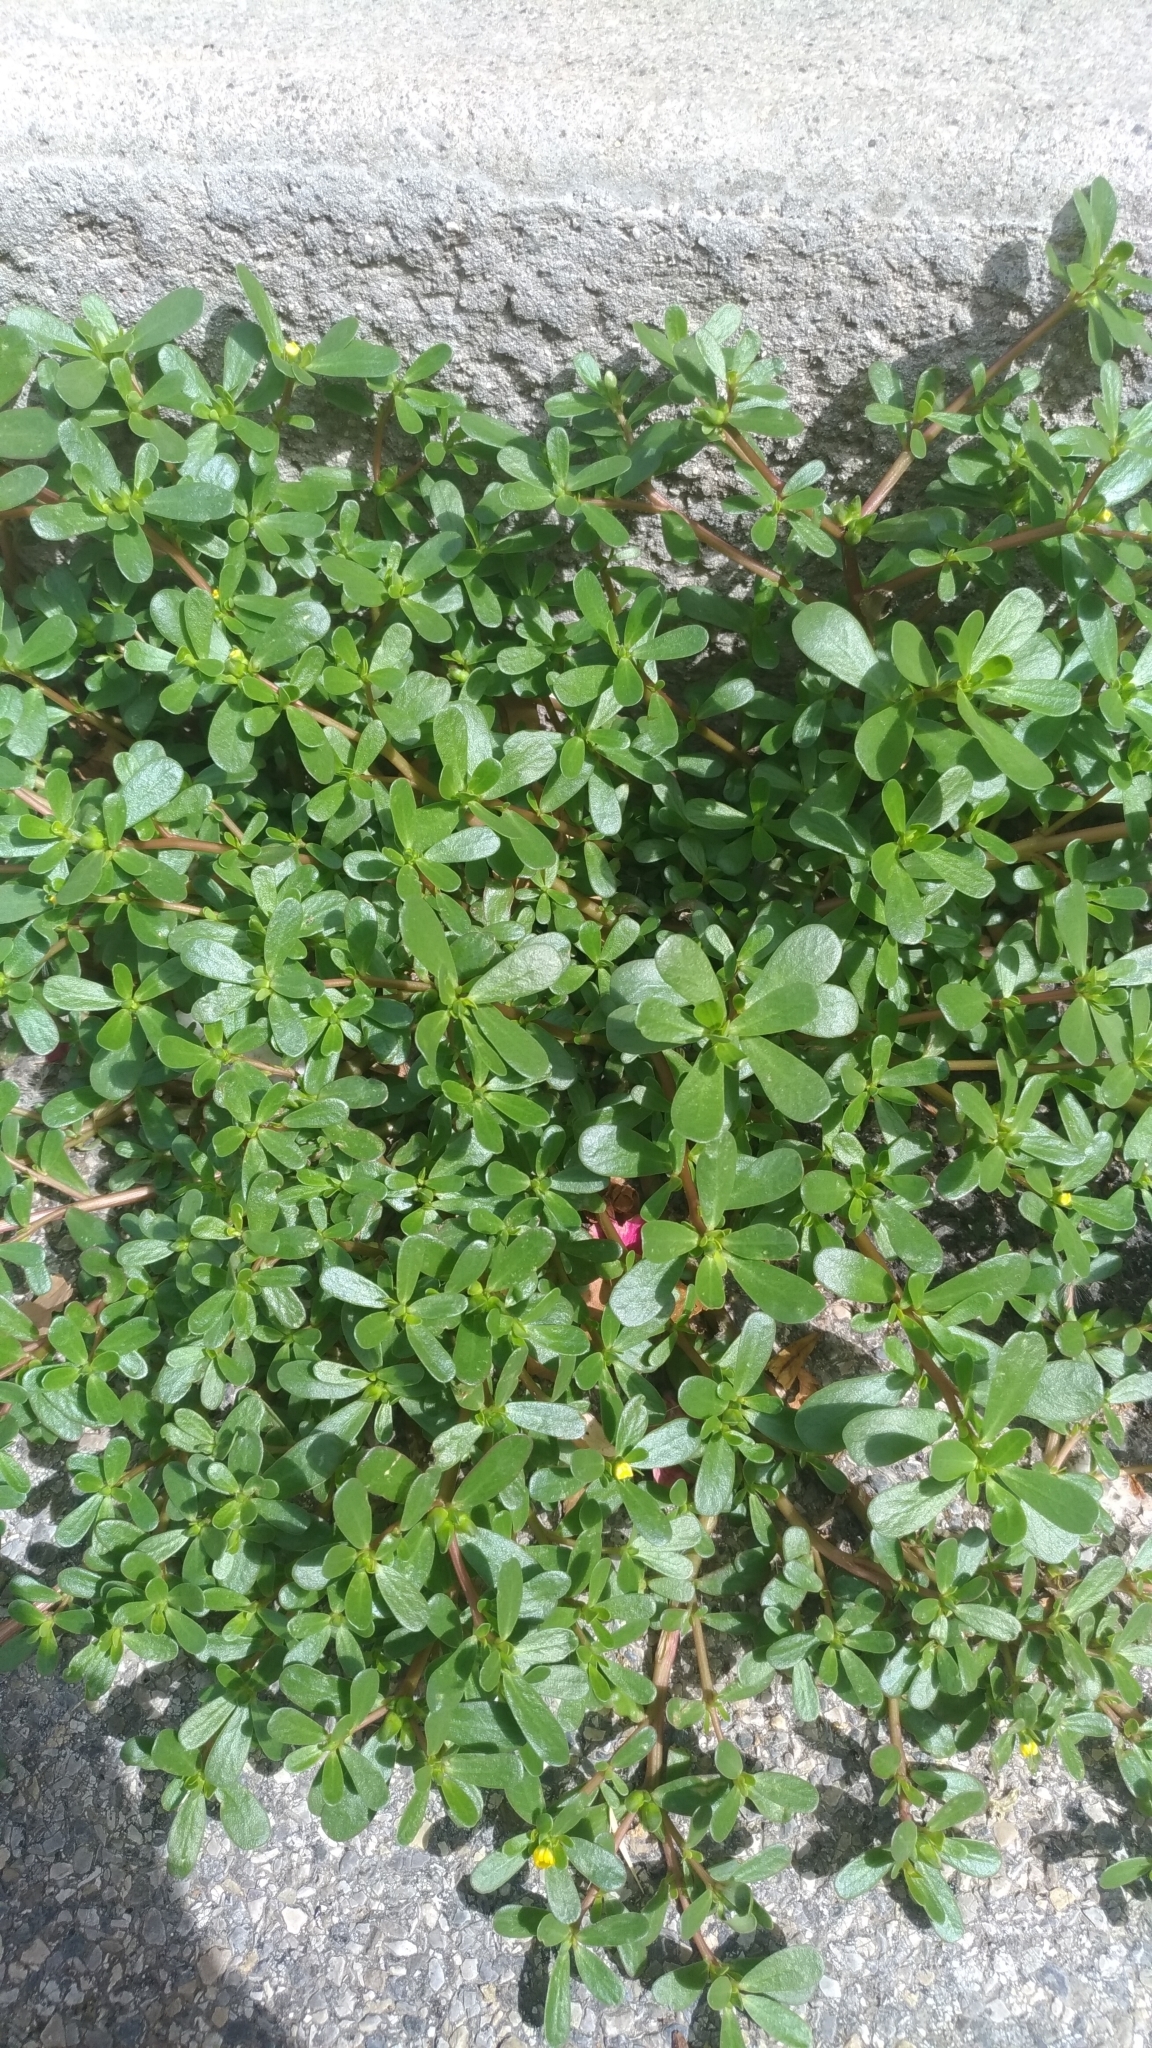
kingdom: Plantae
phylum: Tracheophyta
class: Magnoliopsida
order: Caryophyllales
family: Portulacaceae
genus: Portulaca
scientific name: Portulaca oleracea
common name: Common purslane
